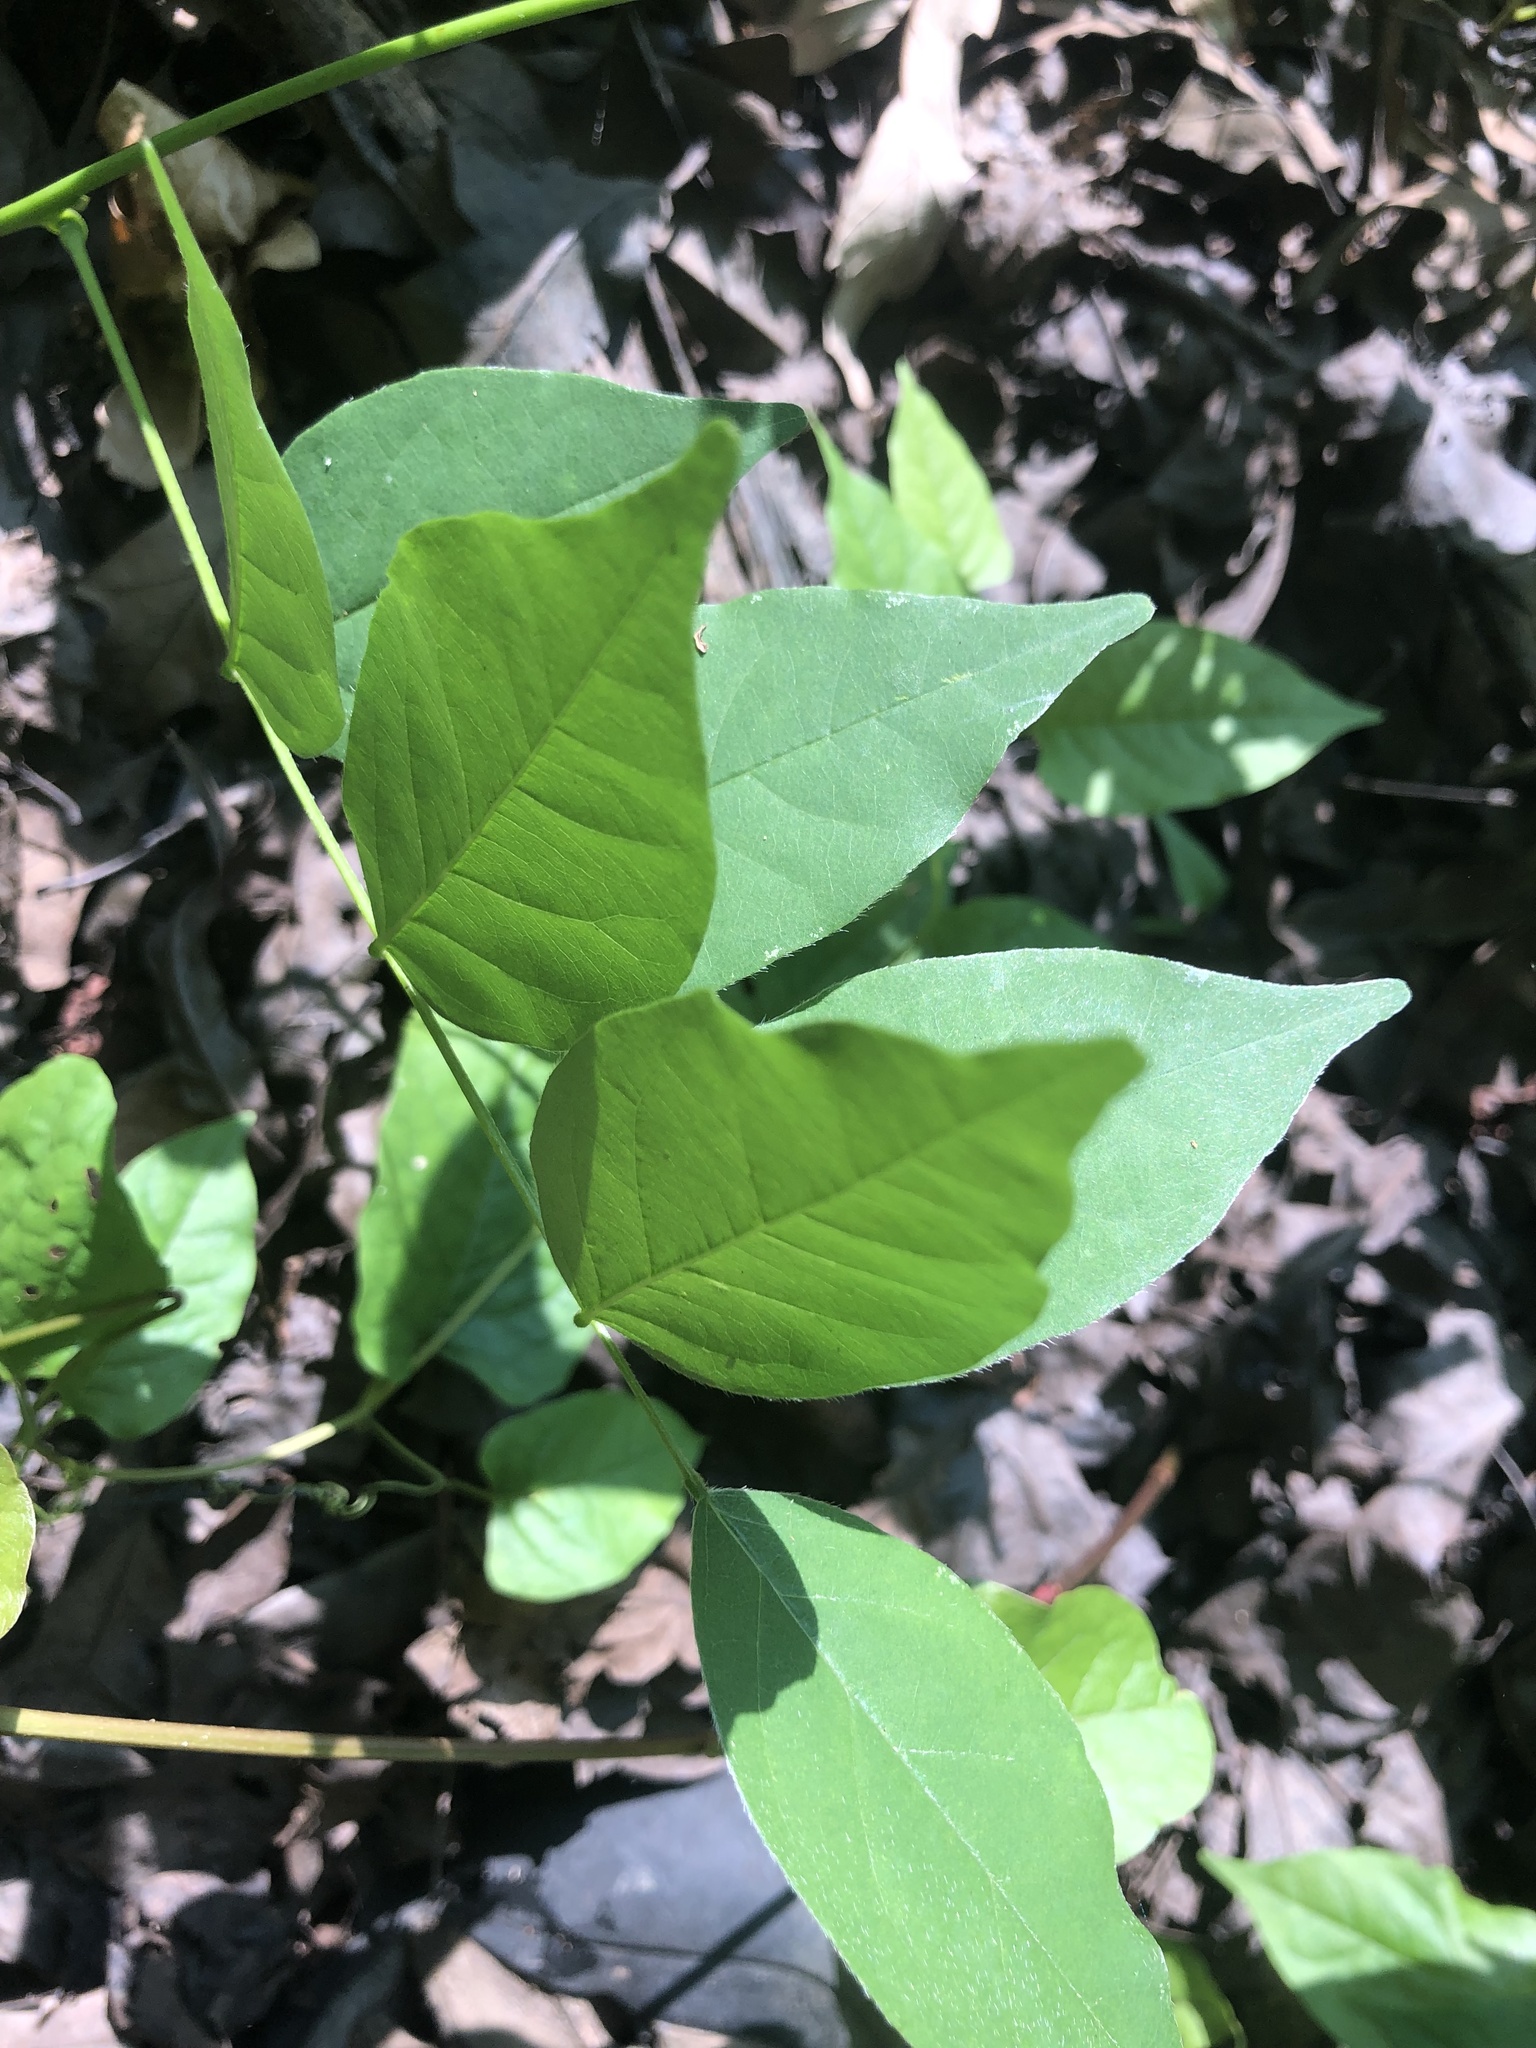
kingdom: Plantae
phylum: Tracheophyta
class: Magnoliopsida
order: Fabales
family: Fabaceae
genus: Wisteria
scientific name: Wisteria frutescens
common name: American wisteria
